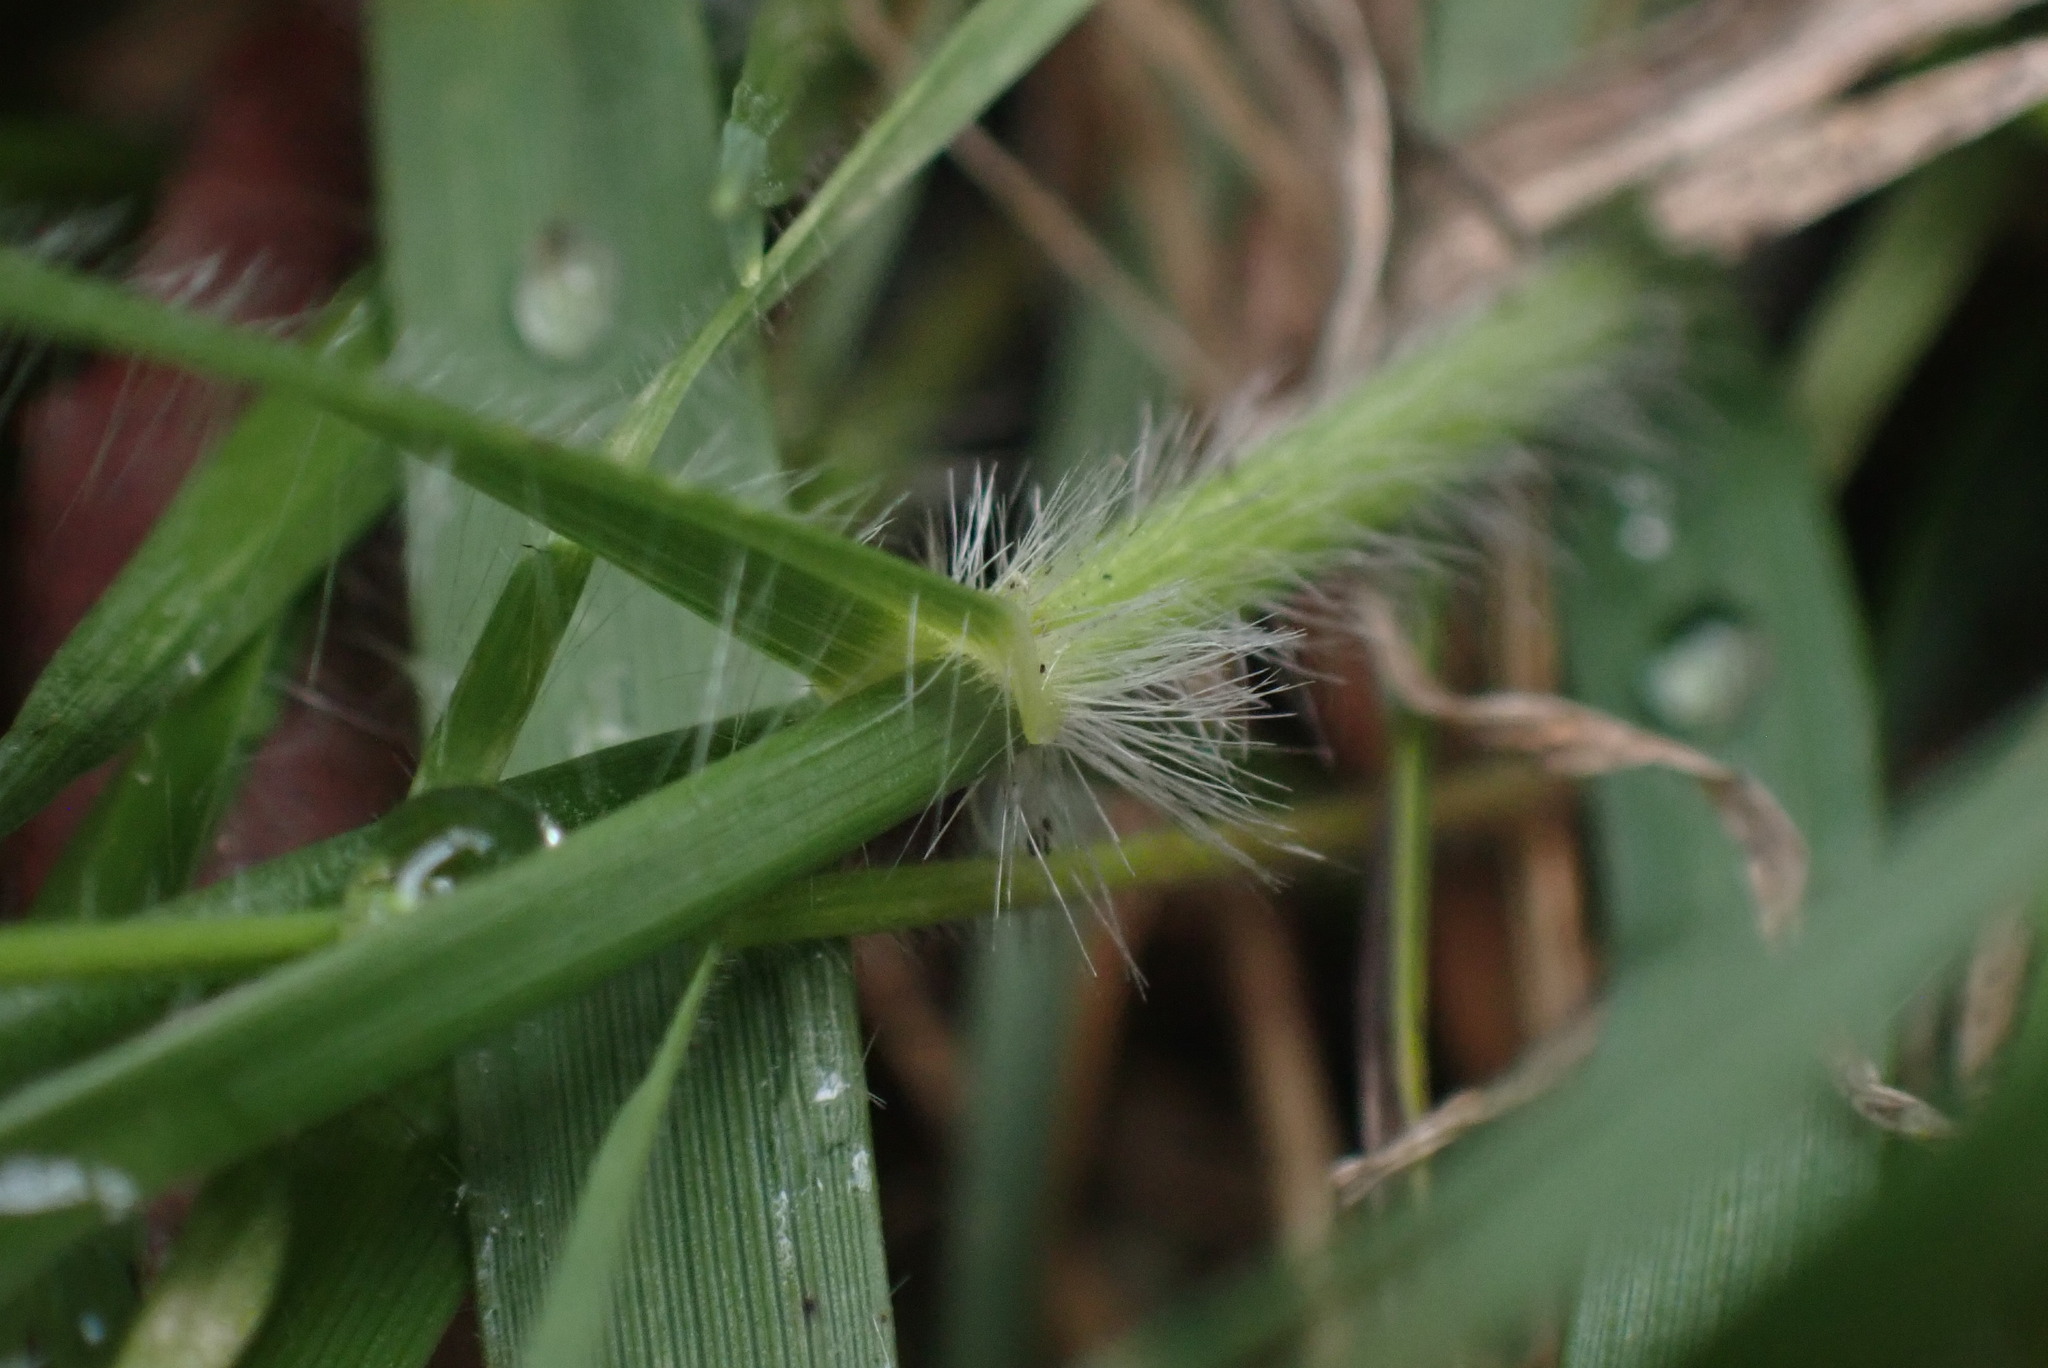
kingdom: Plantae
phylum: Tracheophyta
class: Liliopsida
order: Poales
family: Poaceae
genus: Danthonia
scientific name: Danthonia californica
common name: California oat grass
